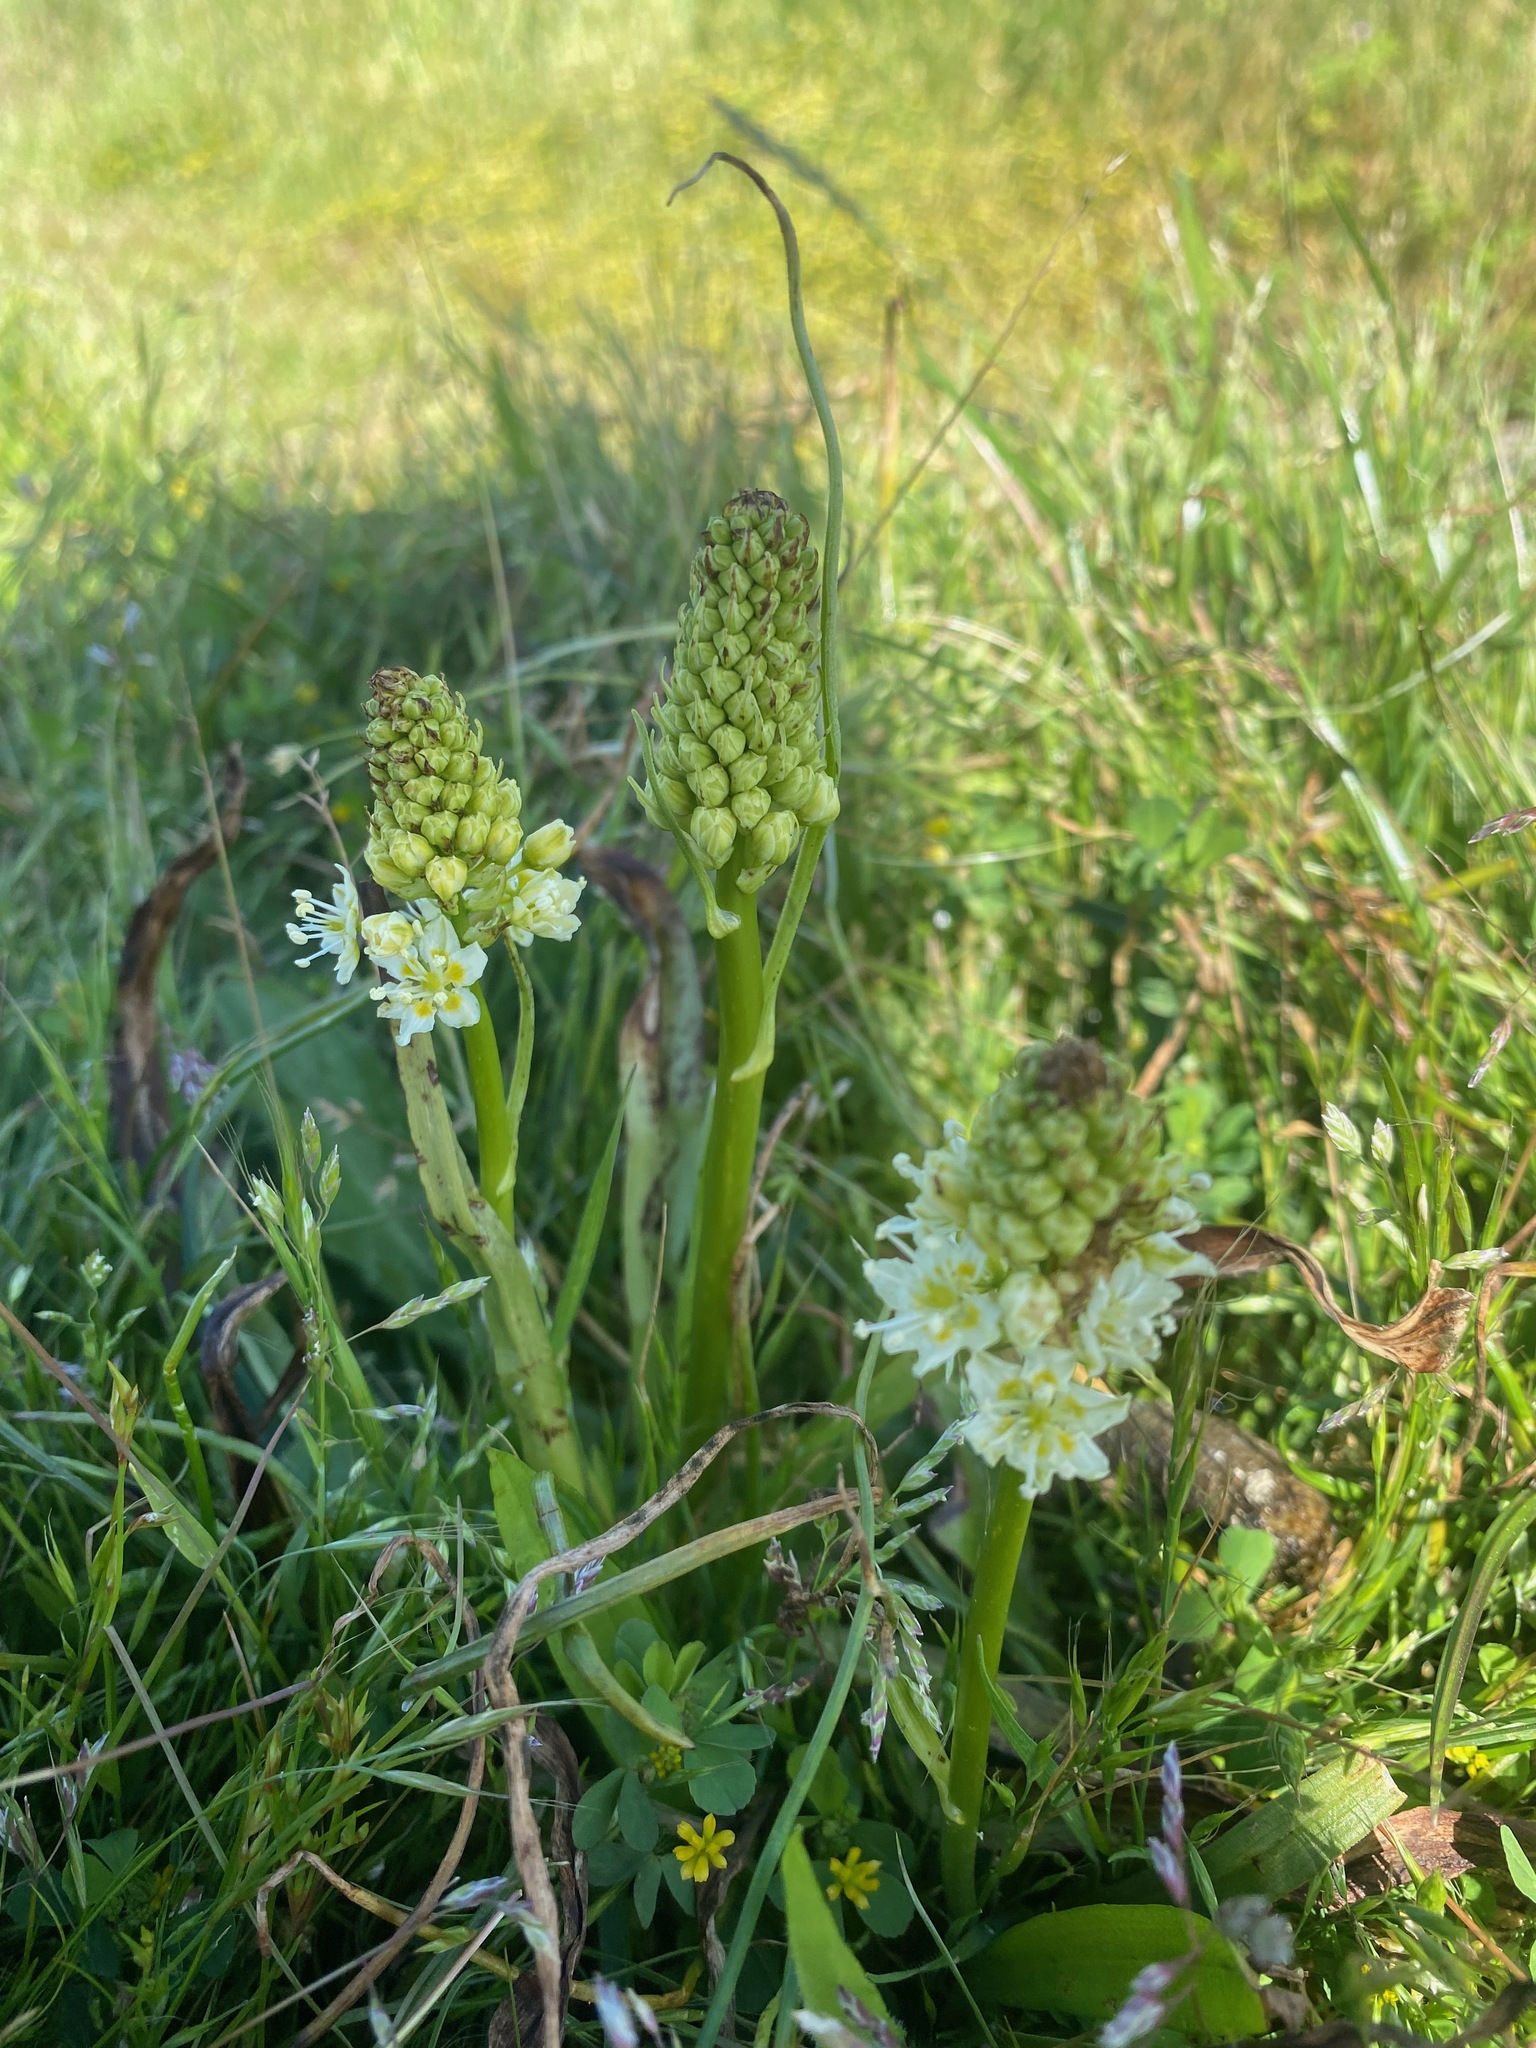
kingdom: Plantae
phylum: Tracheophyta
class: Liliopsida
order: Liliales
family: Melanthiaceae
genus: Toxicoscordion
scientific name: Toxicoscordion venenosum
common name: Meadow death camas
